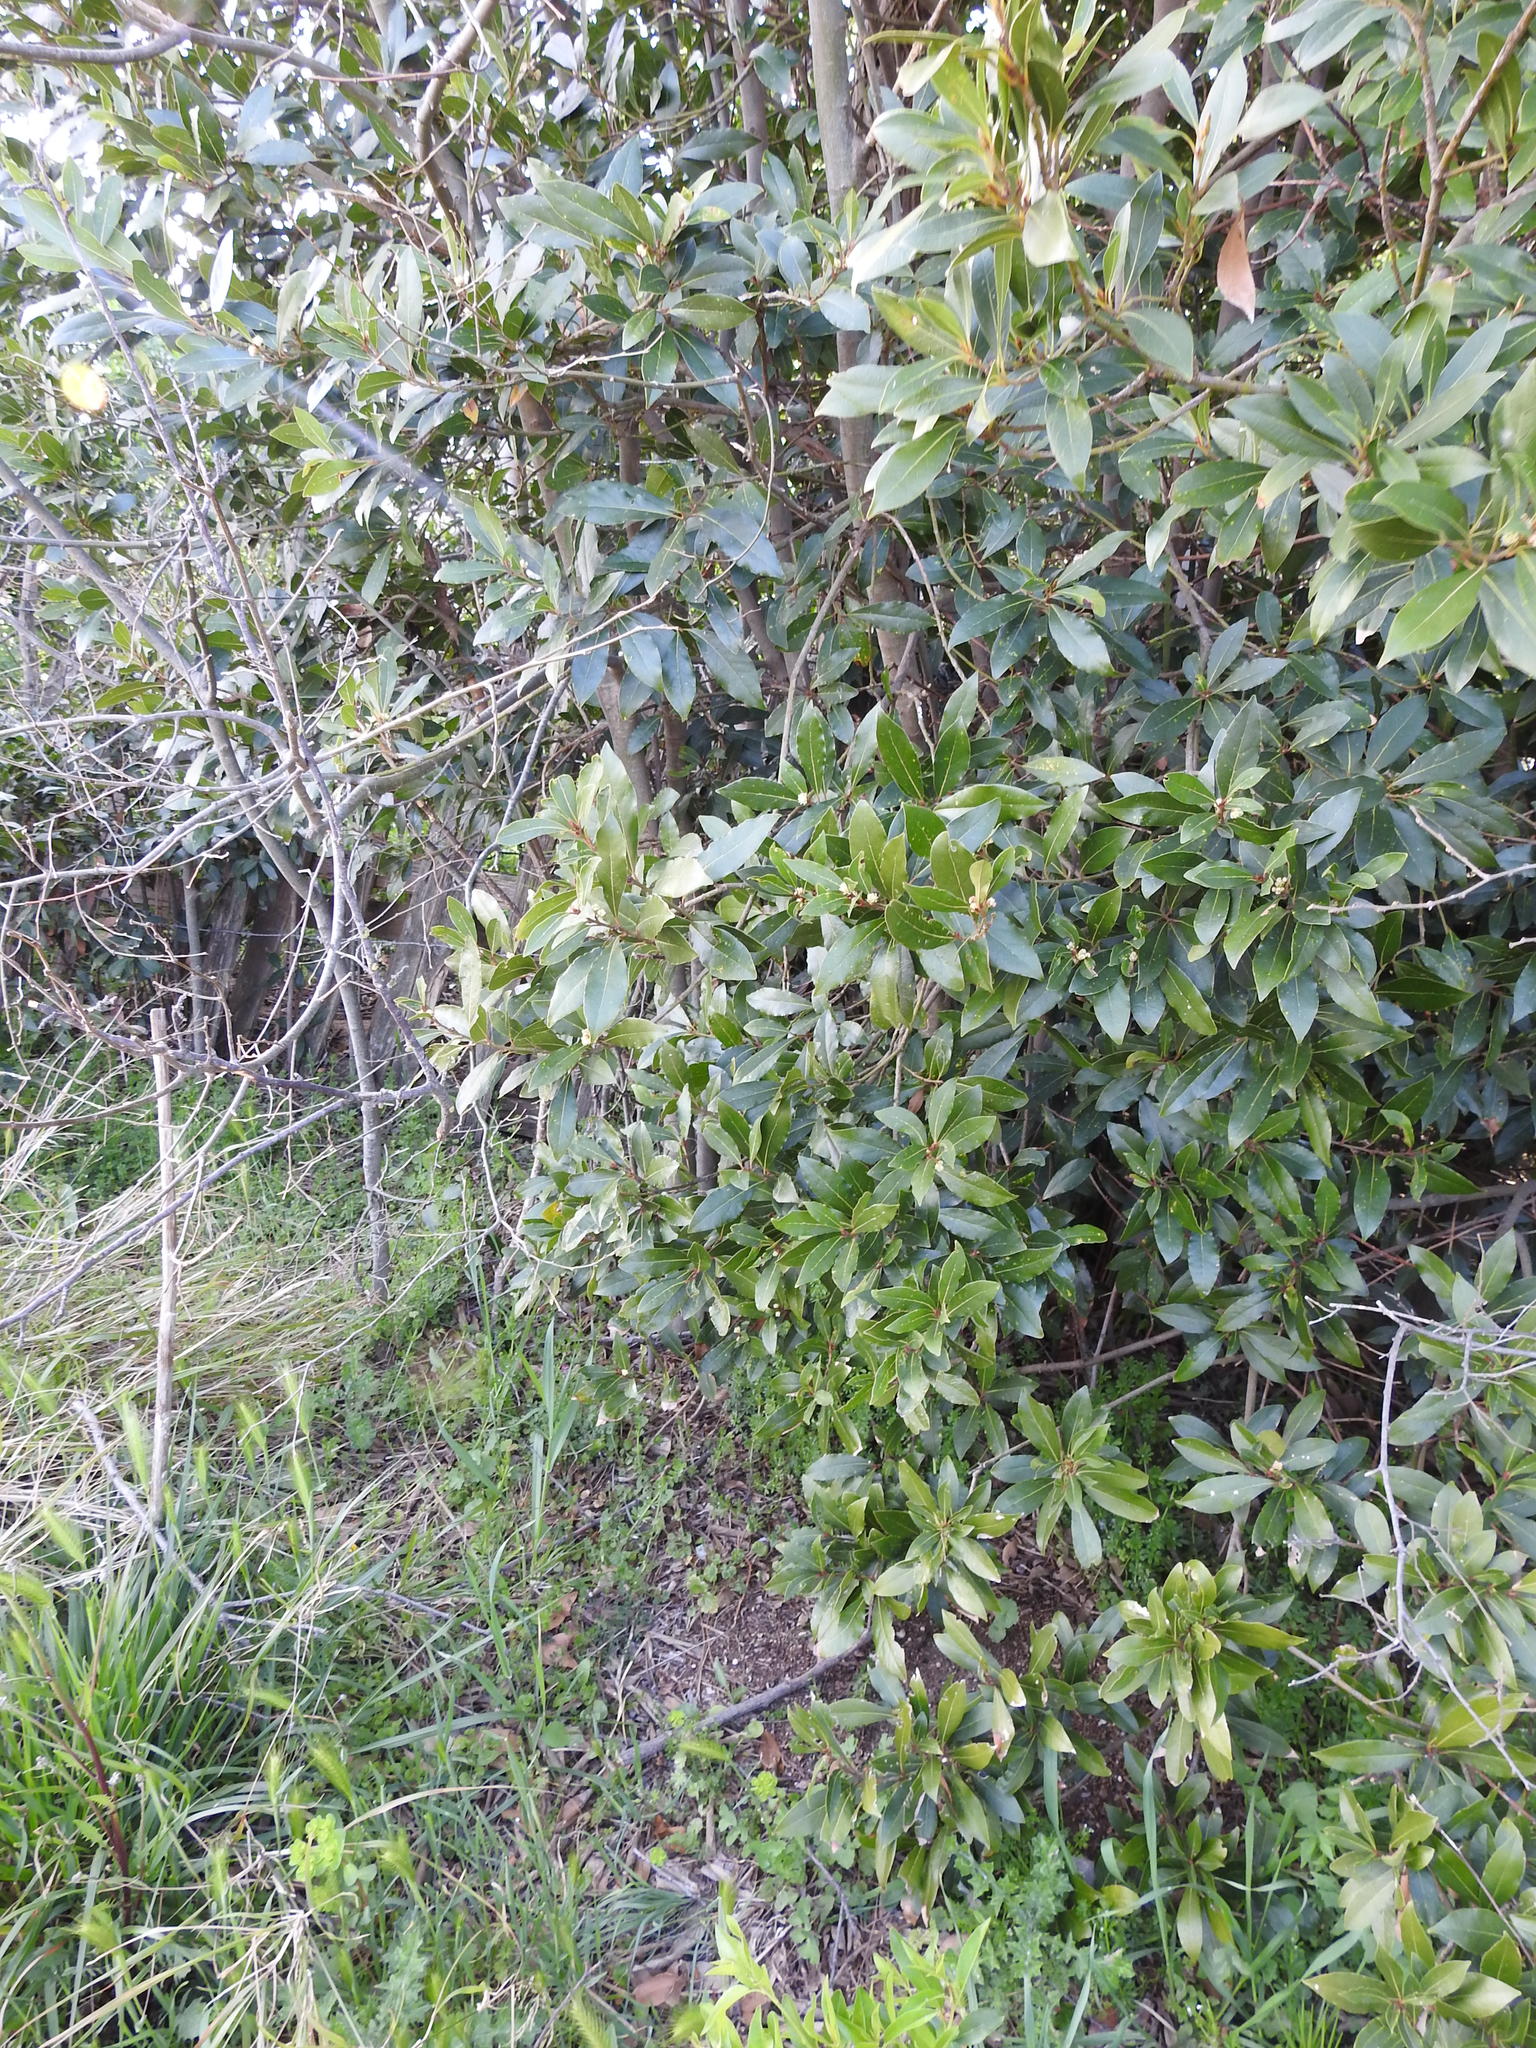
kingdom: Plantae
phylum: Tracheophyta
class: Magnoliopsida
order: Laurales
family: Lauraceae
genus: Laurus
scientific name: Laurus nobilis
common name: Bay
